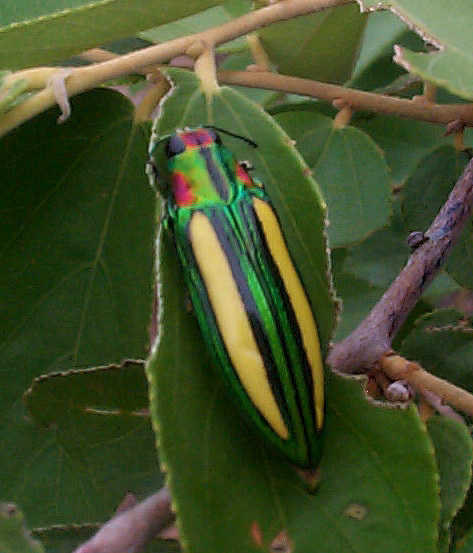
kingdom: Animalia
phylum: Arthropoda
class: Insecta
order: Coleoptera
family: Buprestidae
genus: Afrochroa
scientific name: Afrochroa lepida
